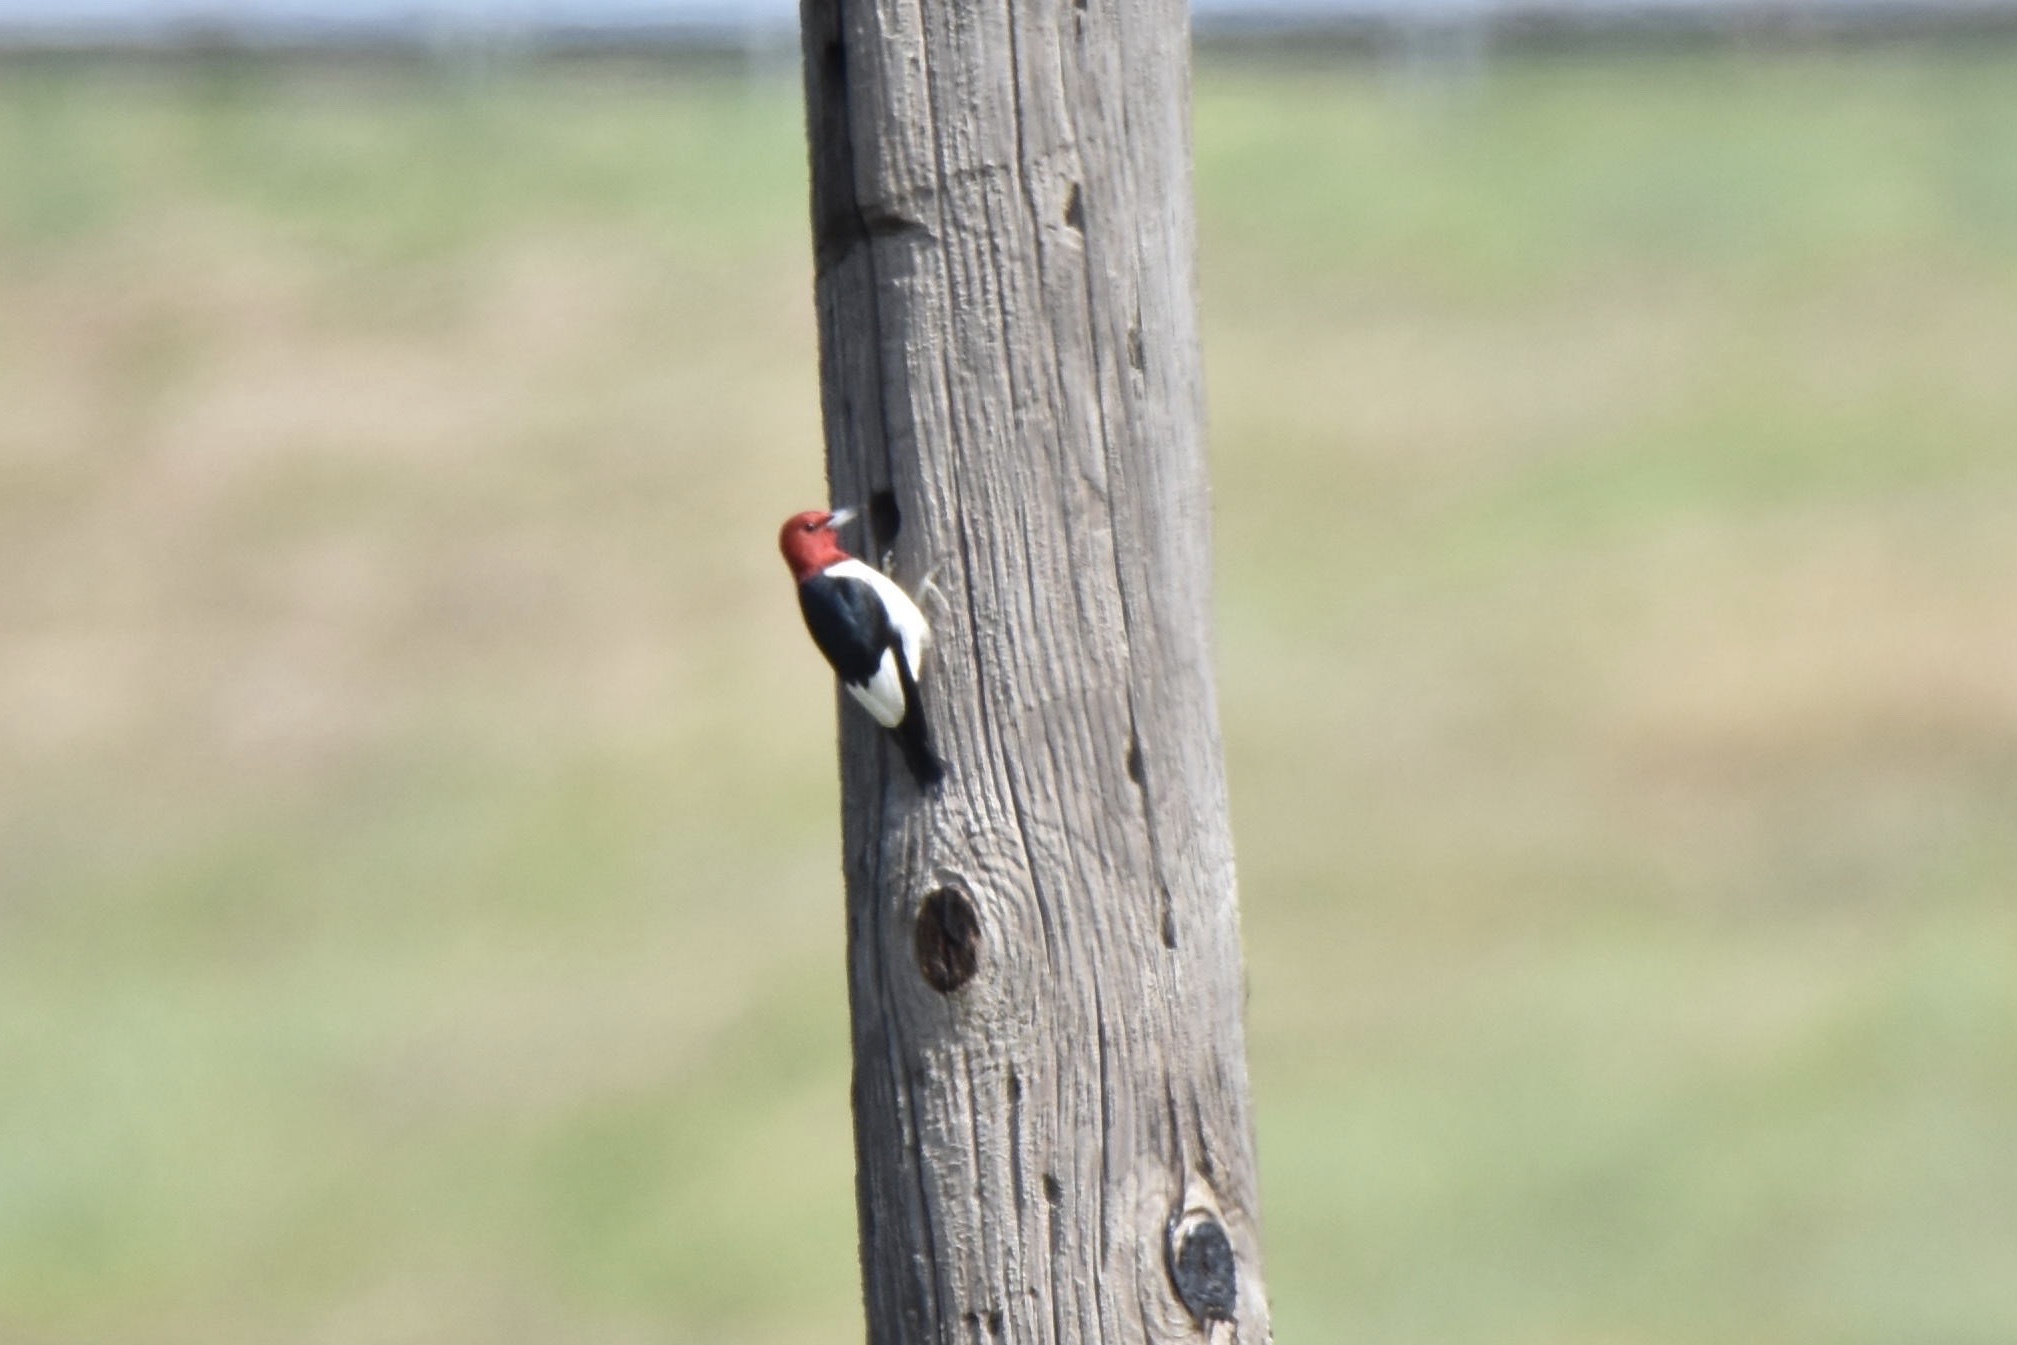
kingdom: Animalia
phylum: Chordata
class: Aves
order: Piciformes
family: Picidae
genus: Melanerpes
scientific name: Melanerpes erythrocephalus
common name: Red-headed woodpecker
